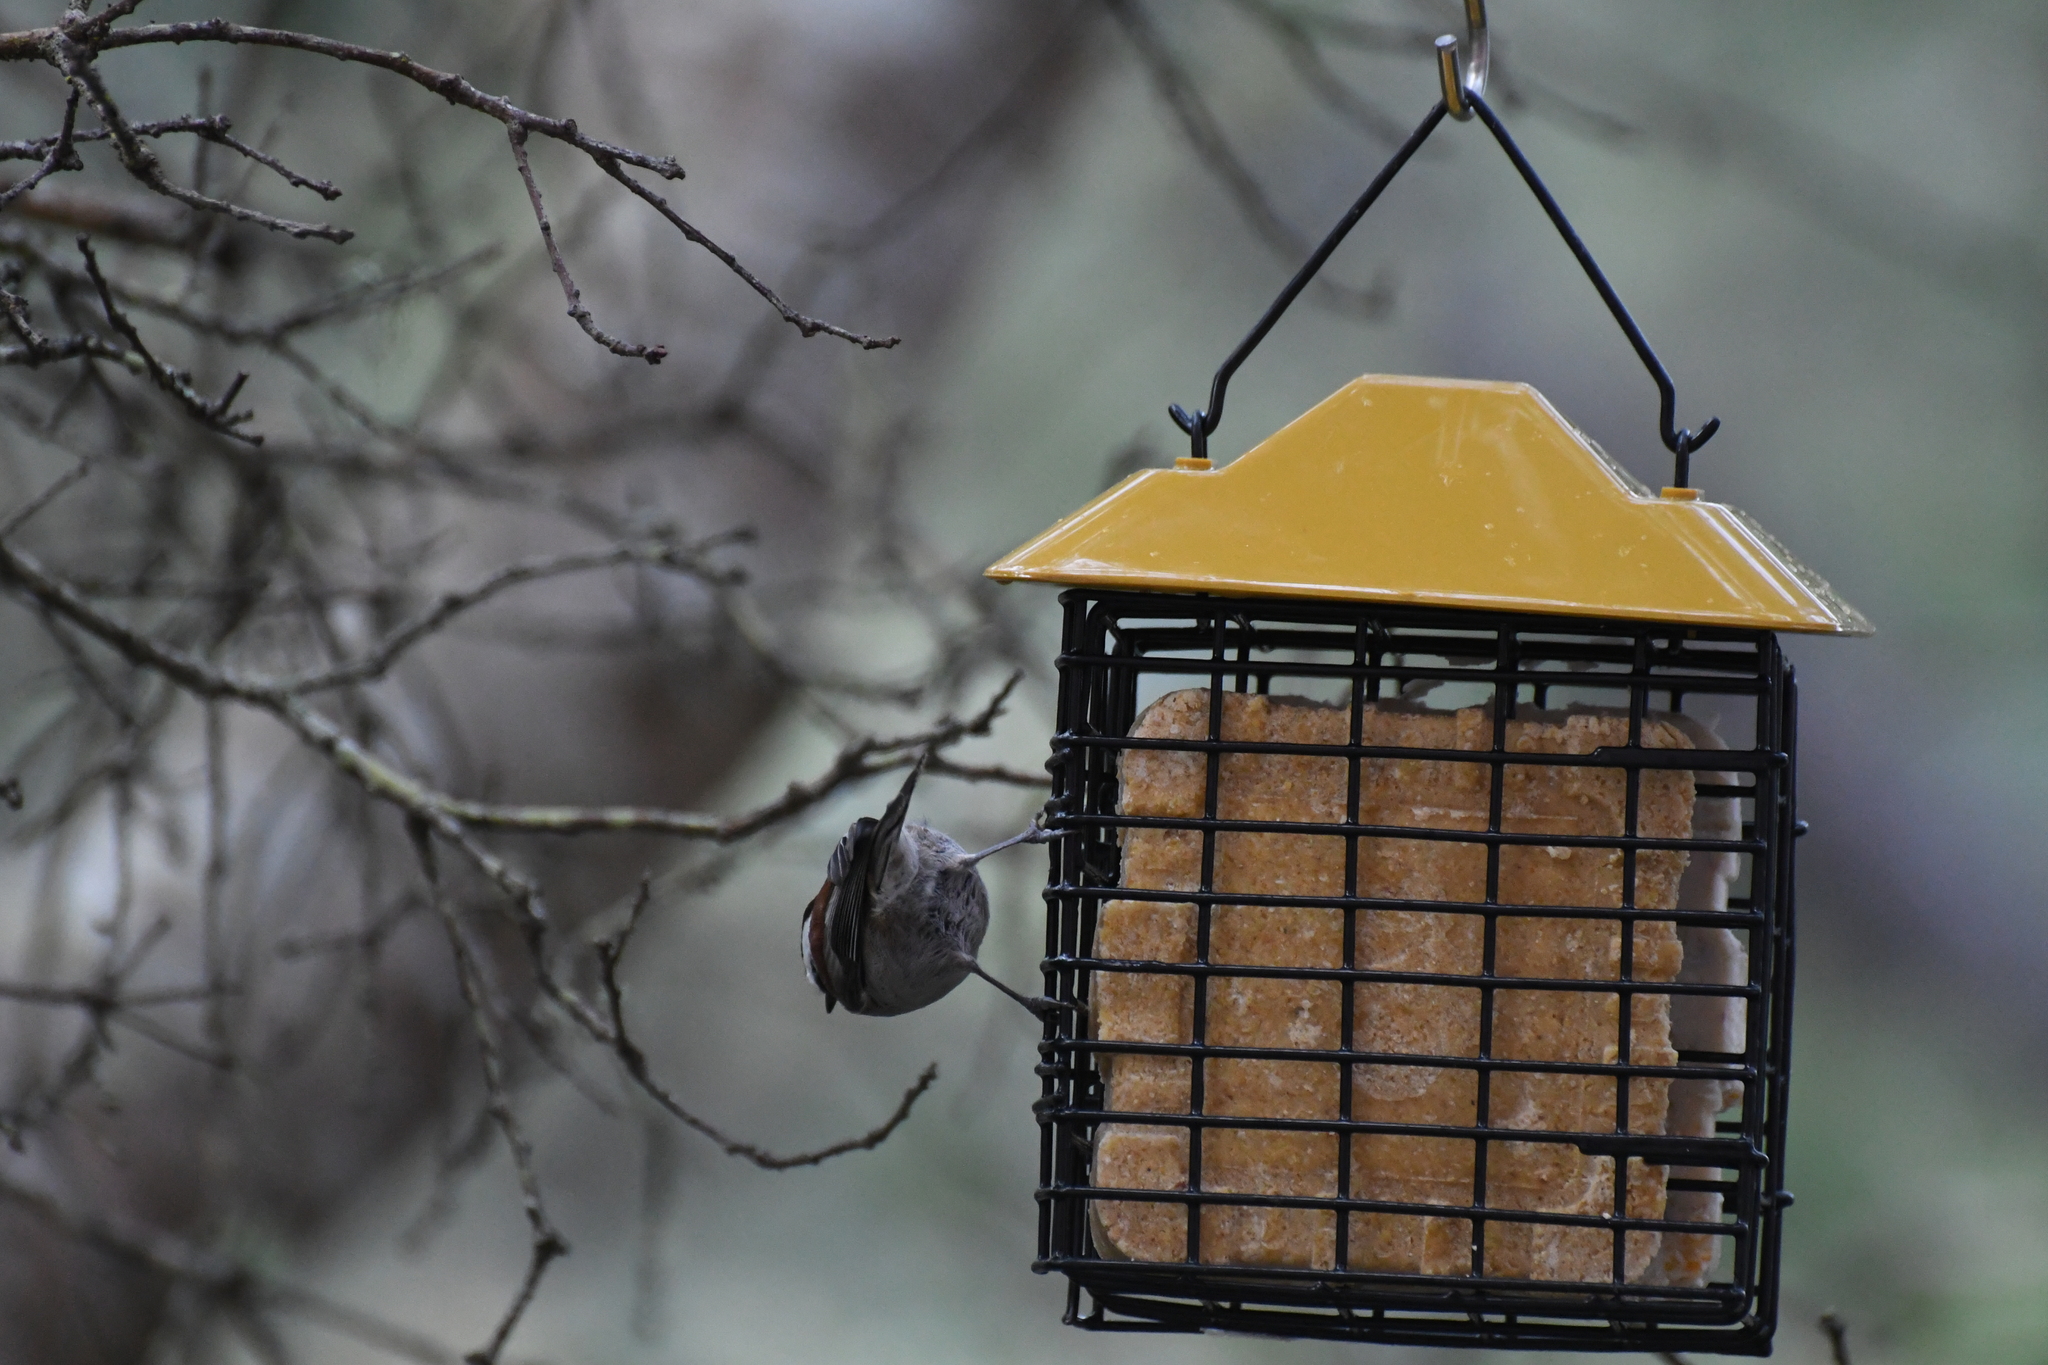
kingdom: Animalia
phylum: Chordata
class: Aves
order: Passeriformes
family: Paridae
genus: Poecile
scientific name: Poecile rufescens
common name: Chestnut-backed chickadee
